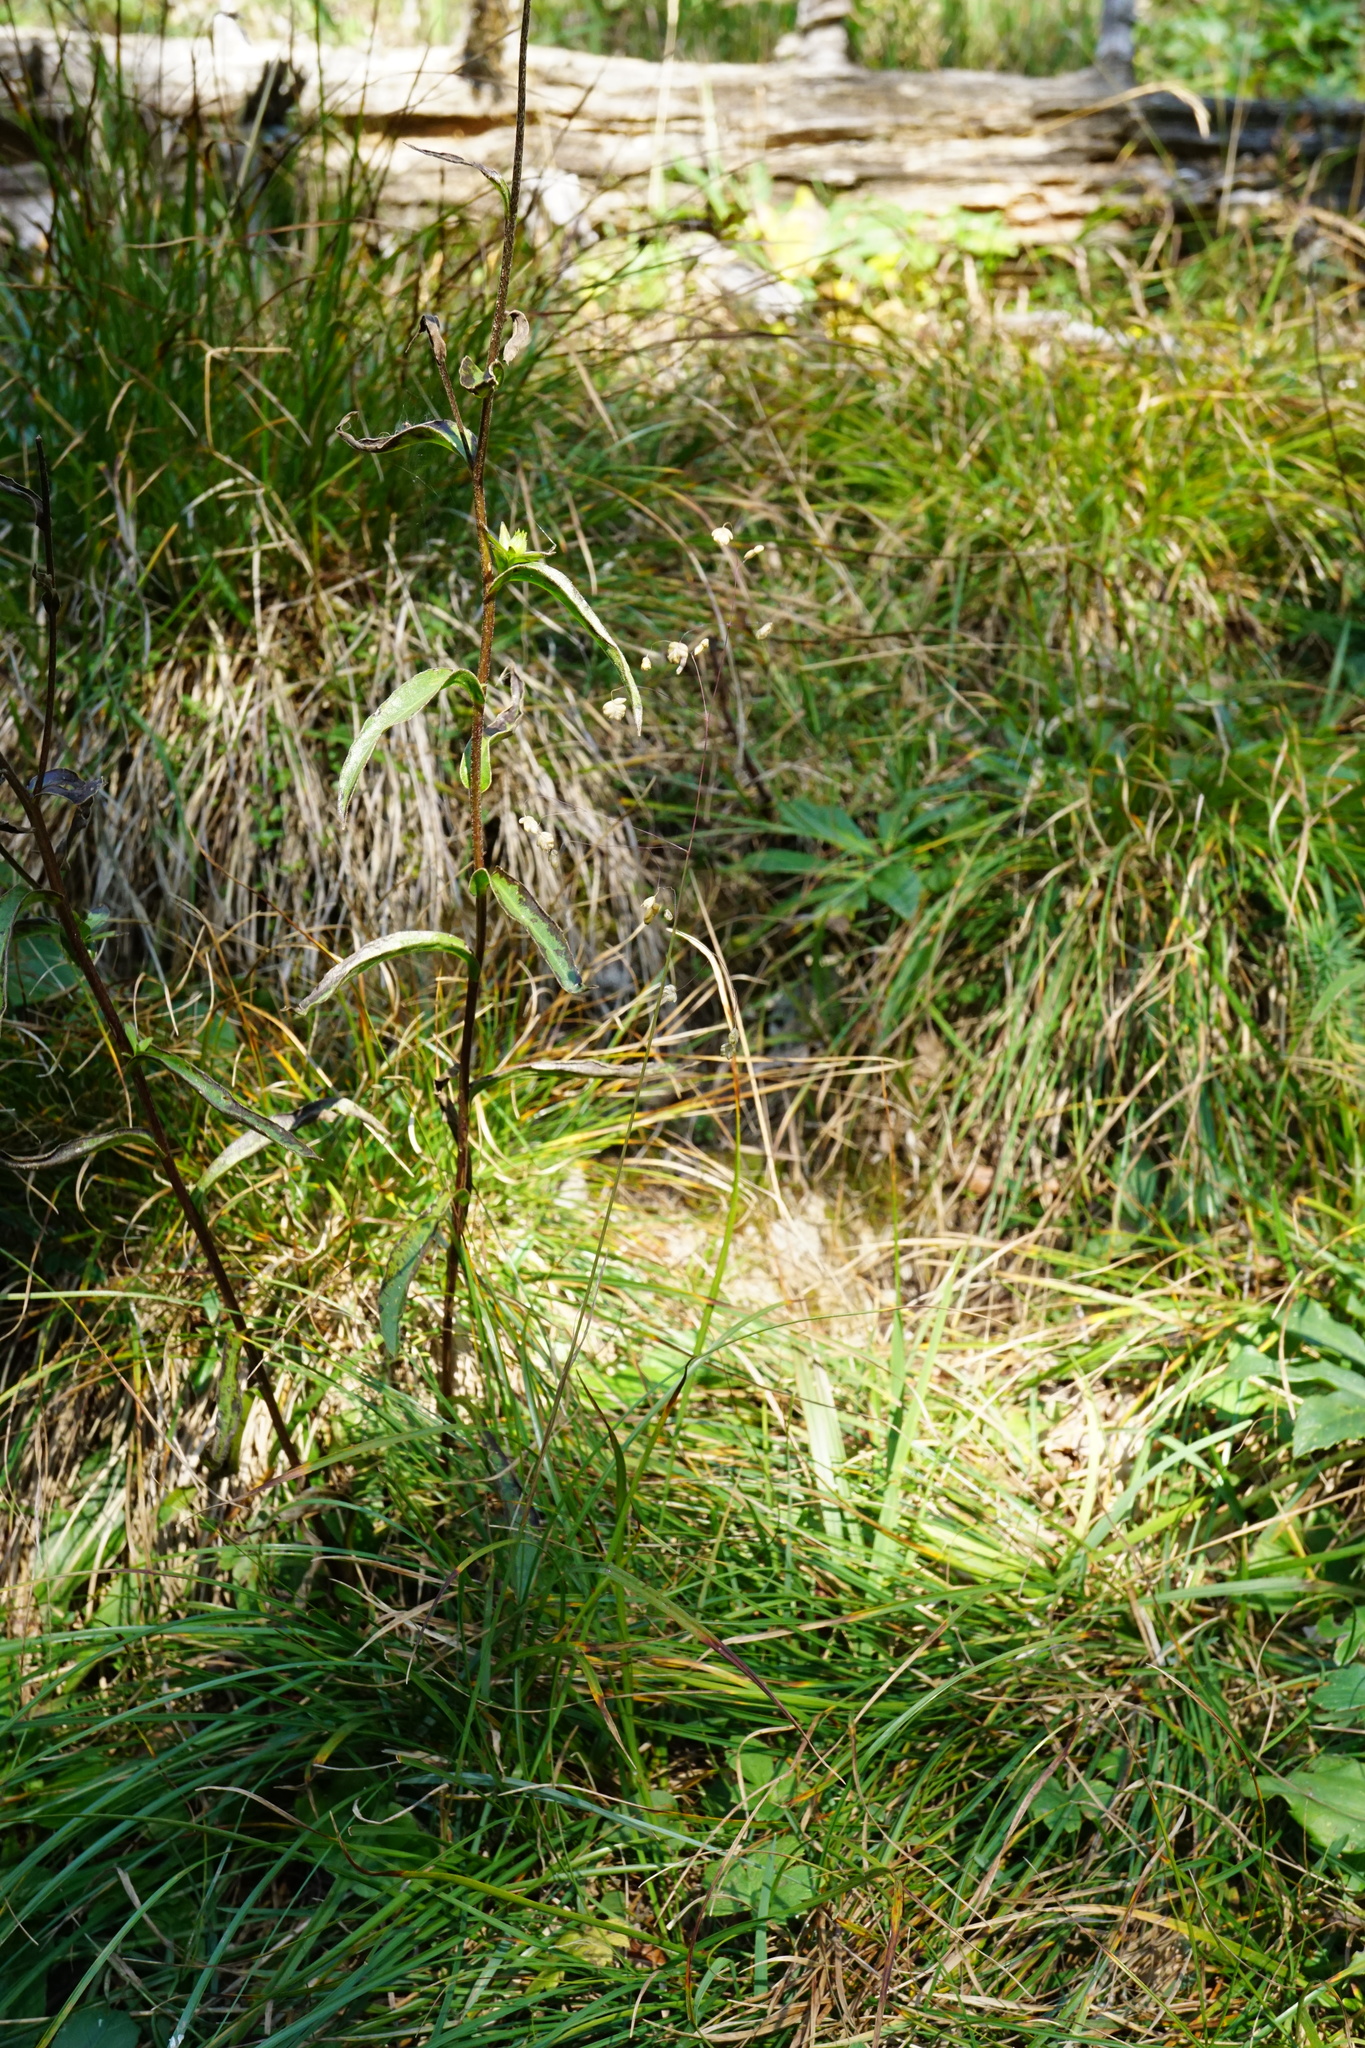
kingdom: Plantae
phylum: Tracheophyta
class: Liliopsida
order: Poales
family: Poaceae
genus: Briza
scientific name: Briza media
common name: Quaking grass
